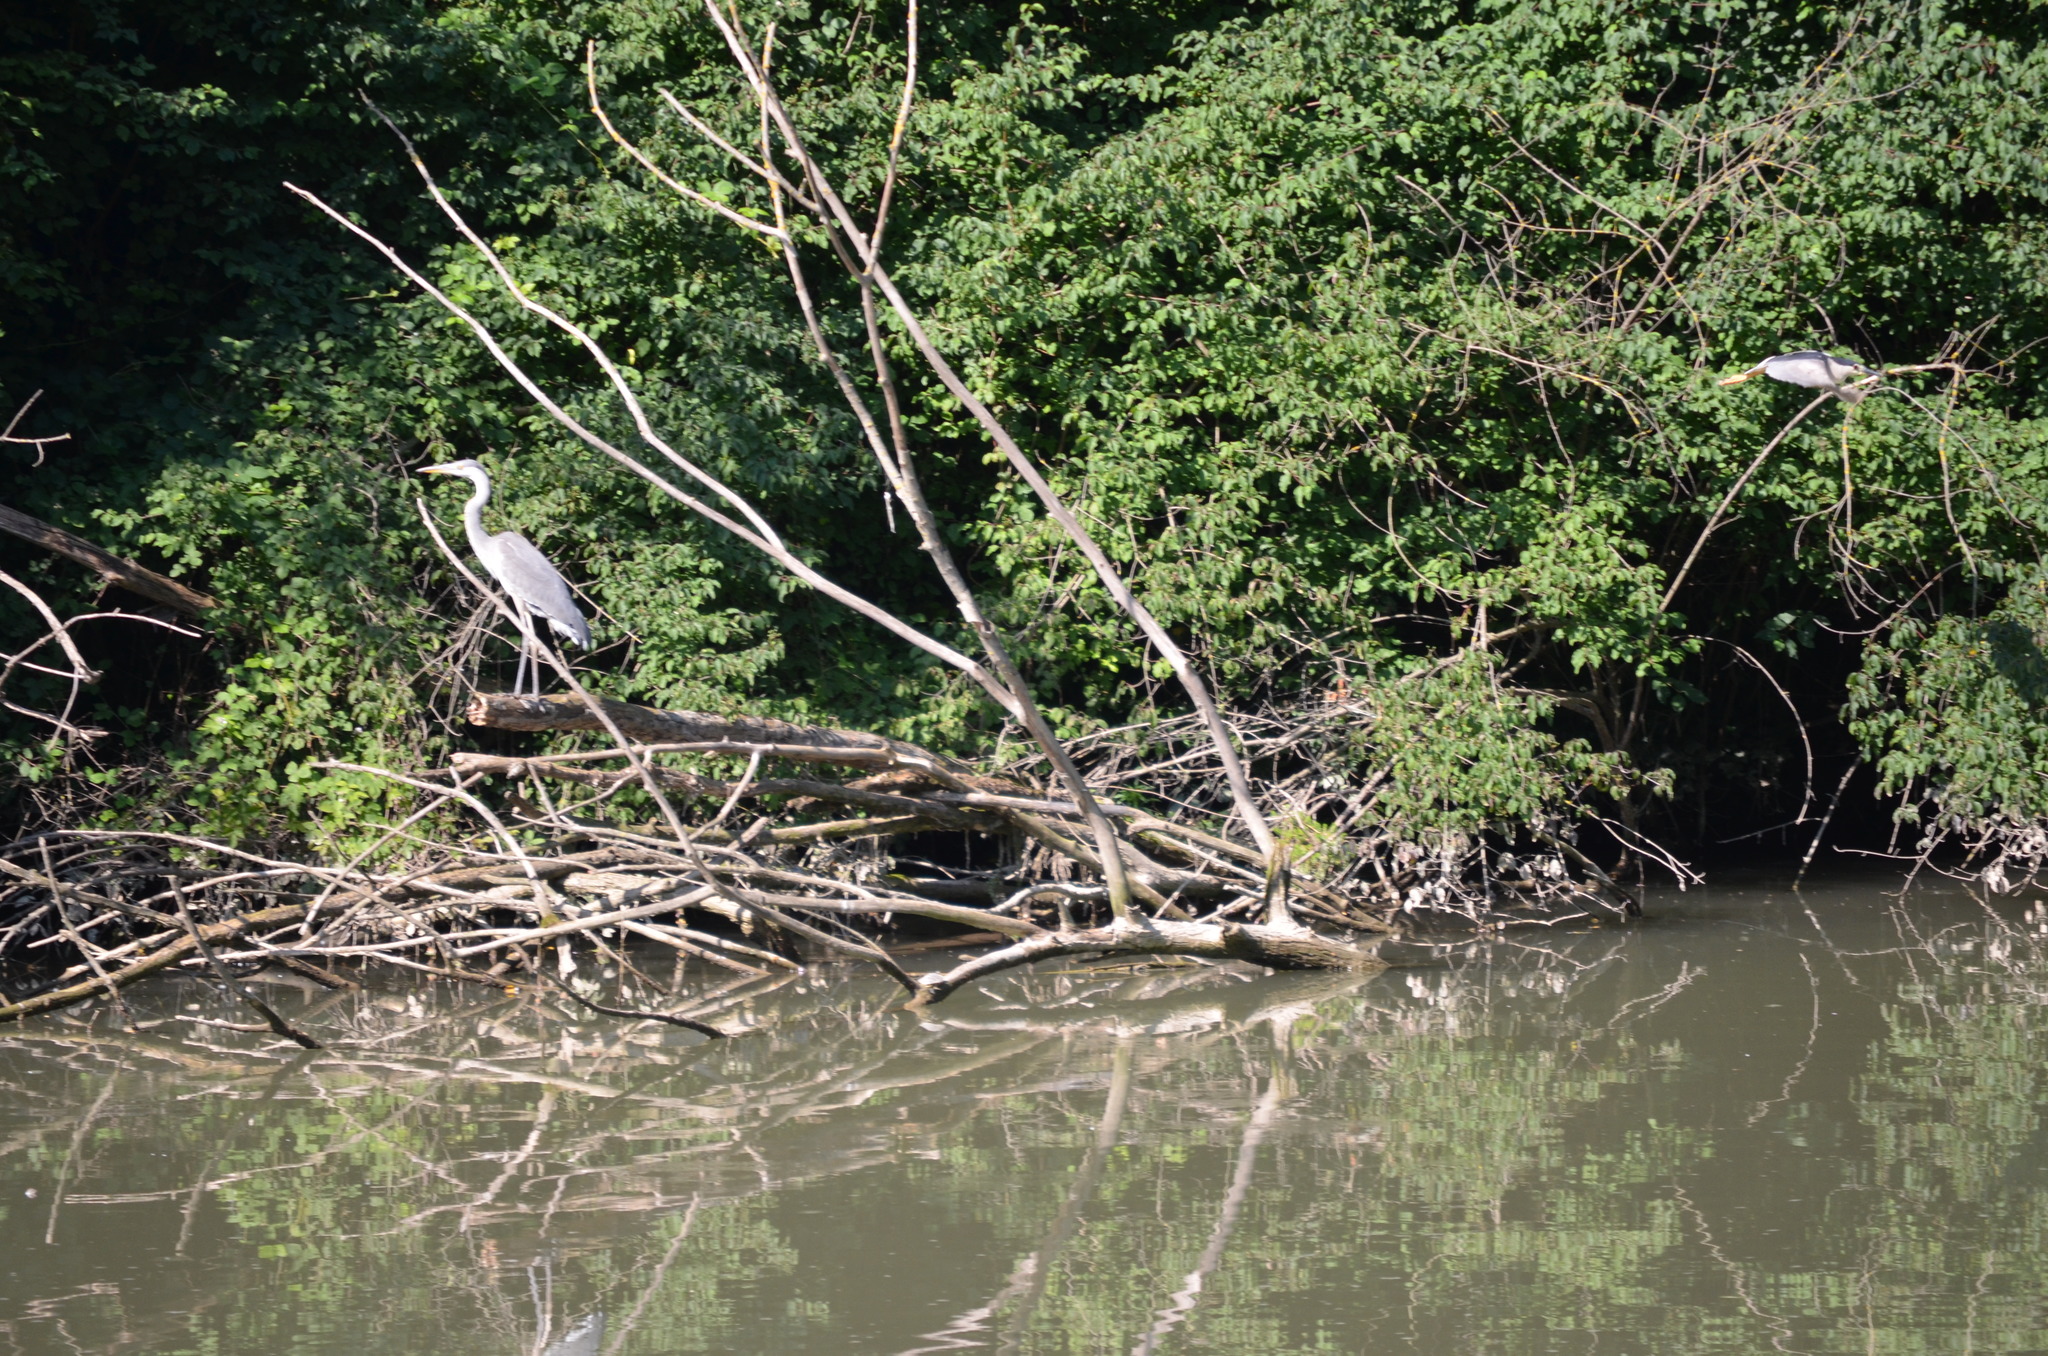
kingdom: Animalia
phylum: Chordata
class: Aves
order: Pelecaniformes
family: Ardeidae
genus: Ardea
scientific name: Ardea cinerea
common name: Grey heron
